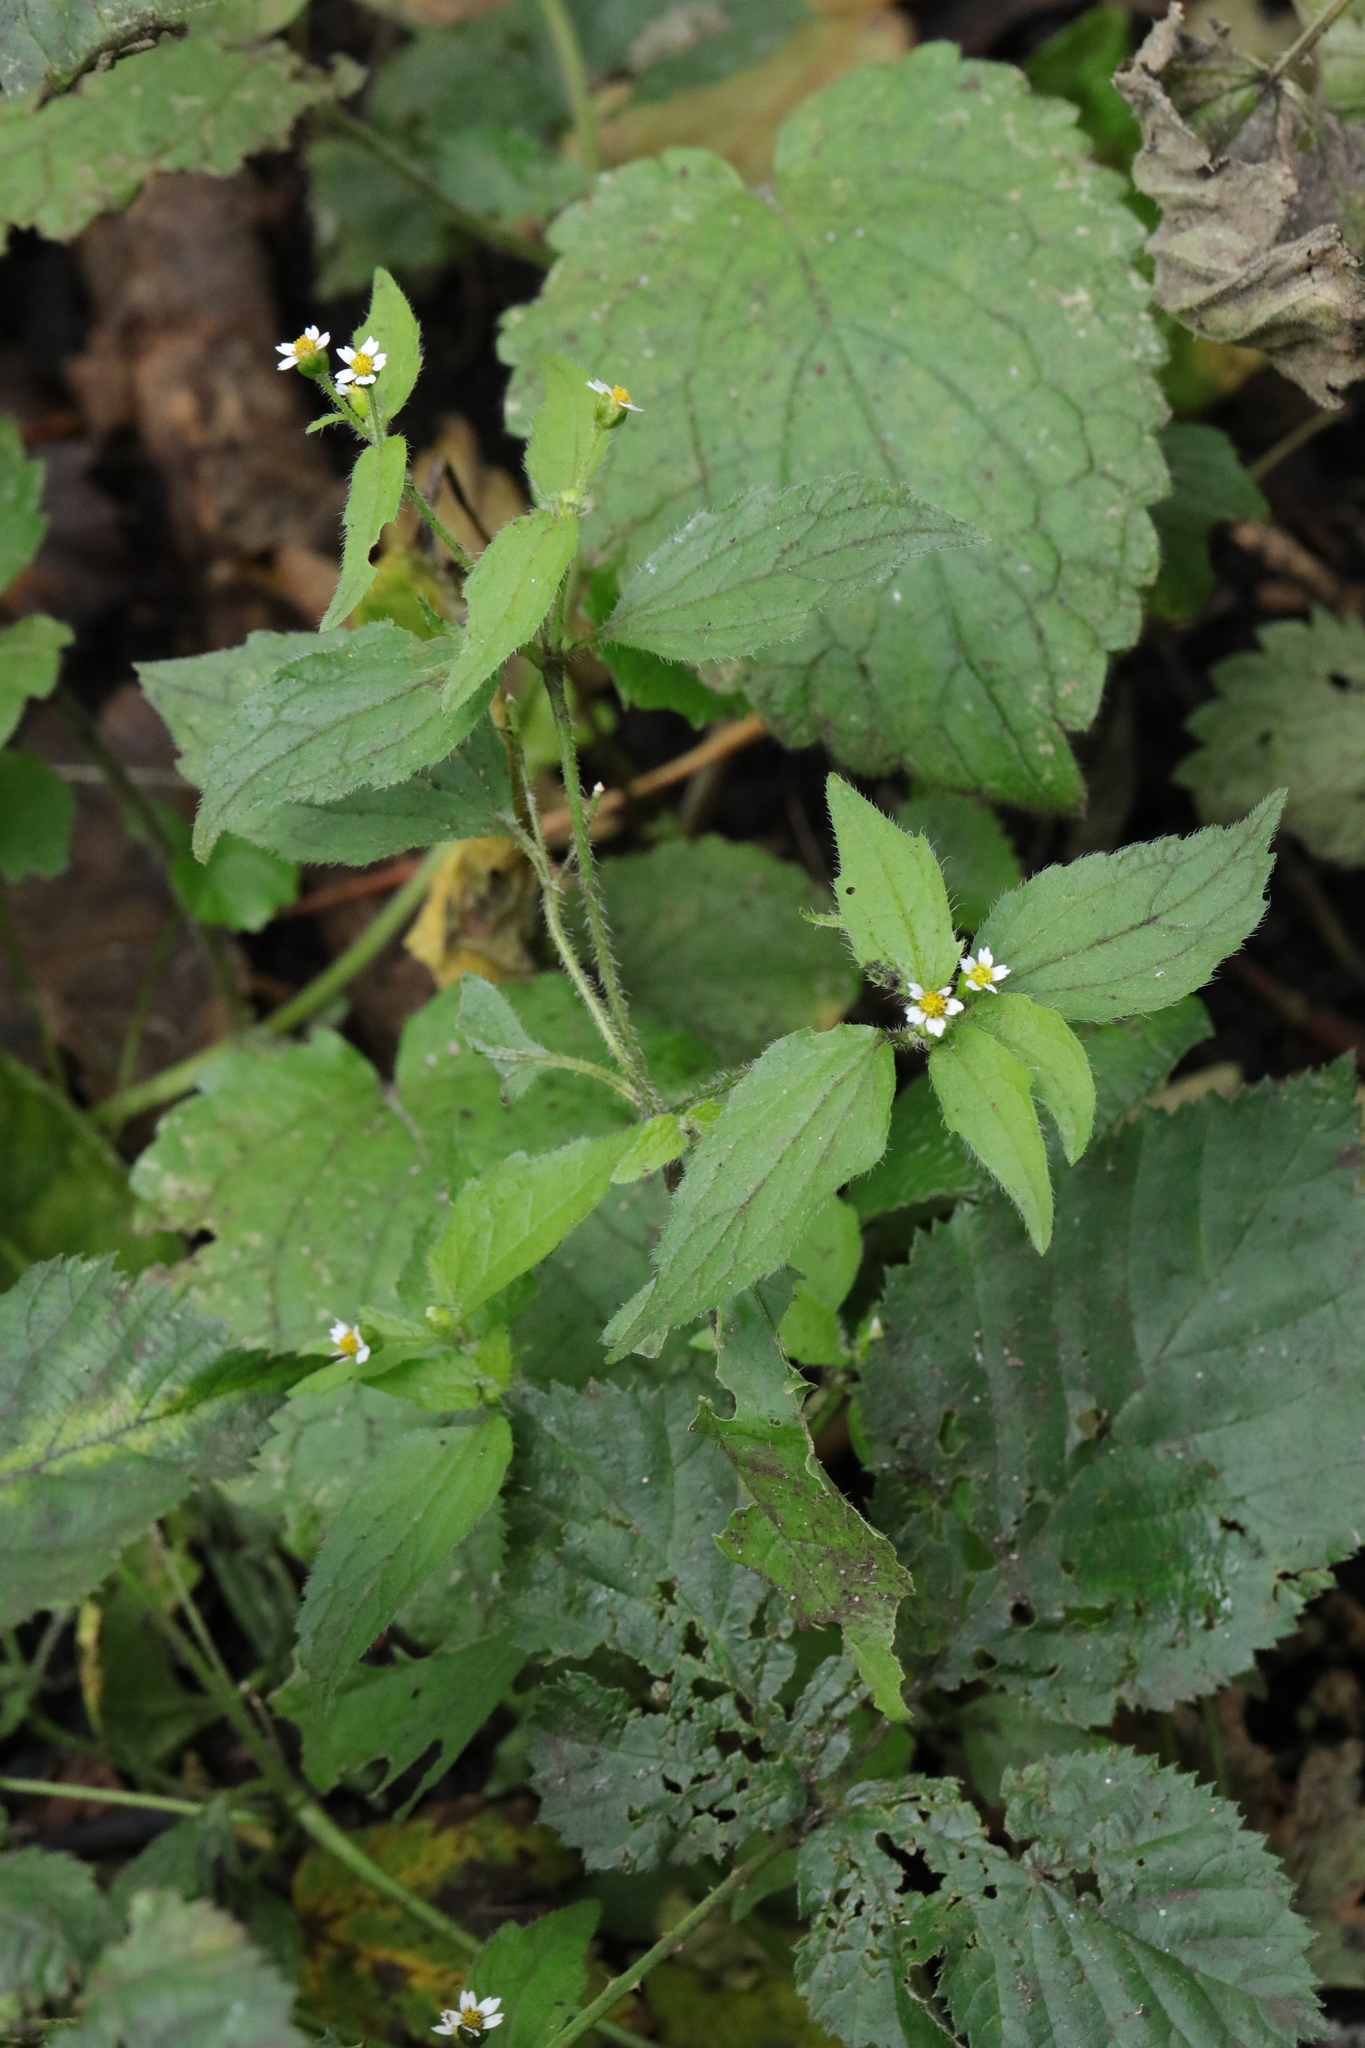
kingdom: Plantae
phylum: Tracheophyta
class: Magnoliopsida
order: Asterales
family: Asteraceae
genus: Galinsoga
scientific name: Galinsoga quadriradiata
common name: Shaggy soldier
